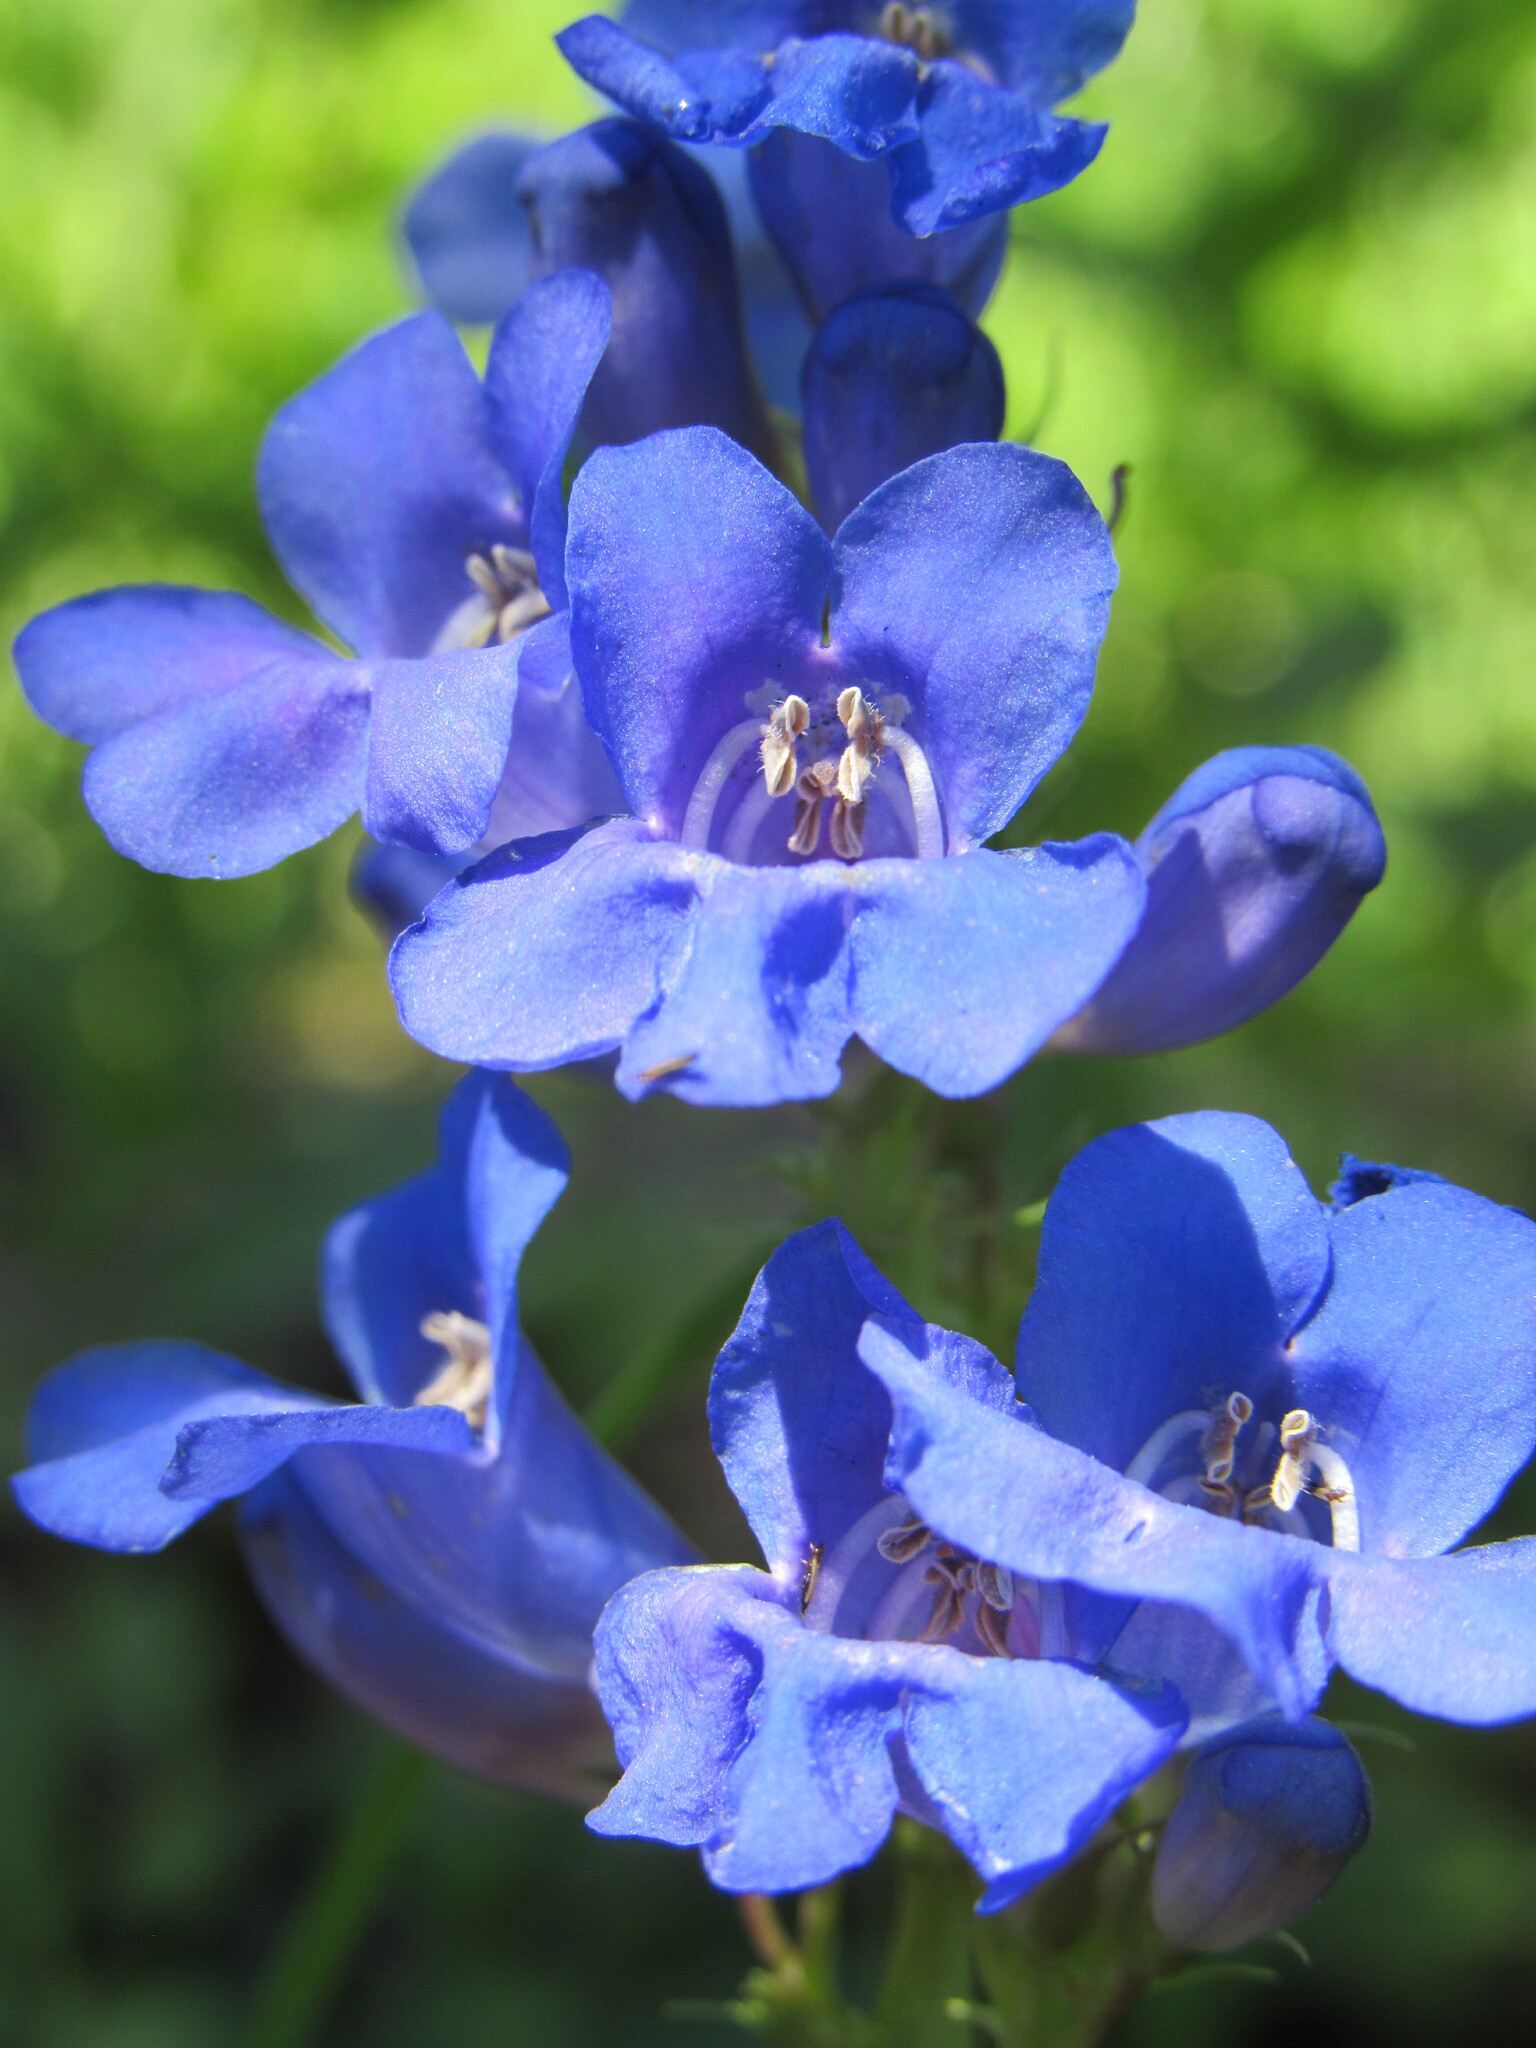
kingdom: Plantae
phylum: Tracheophyta
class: Magnoliopsida
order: Lamiales
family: Plantaginaceae
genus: Penstemon
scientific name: Penstemon cyananthus
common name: Wasatch penstemon
